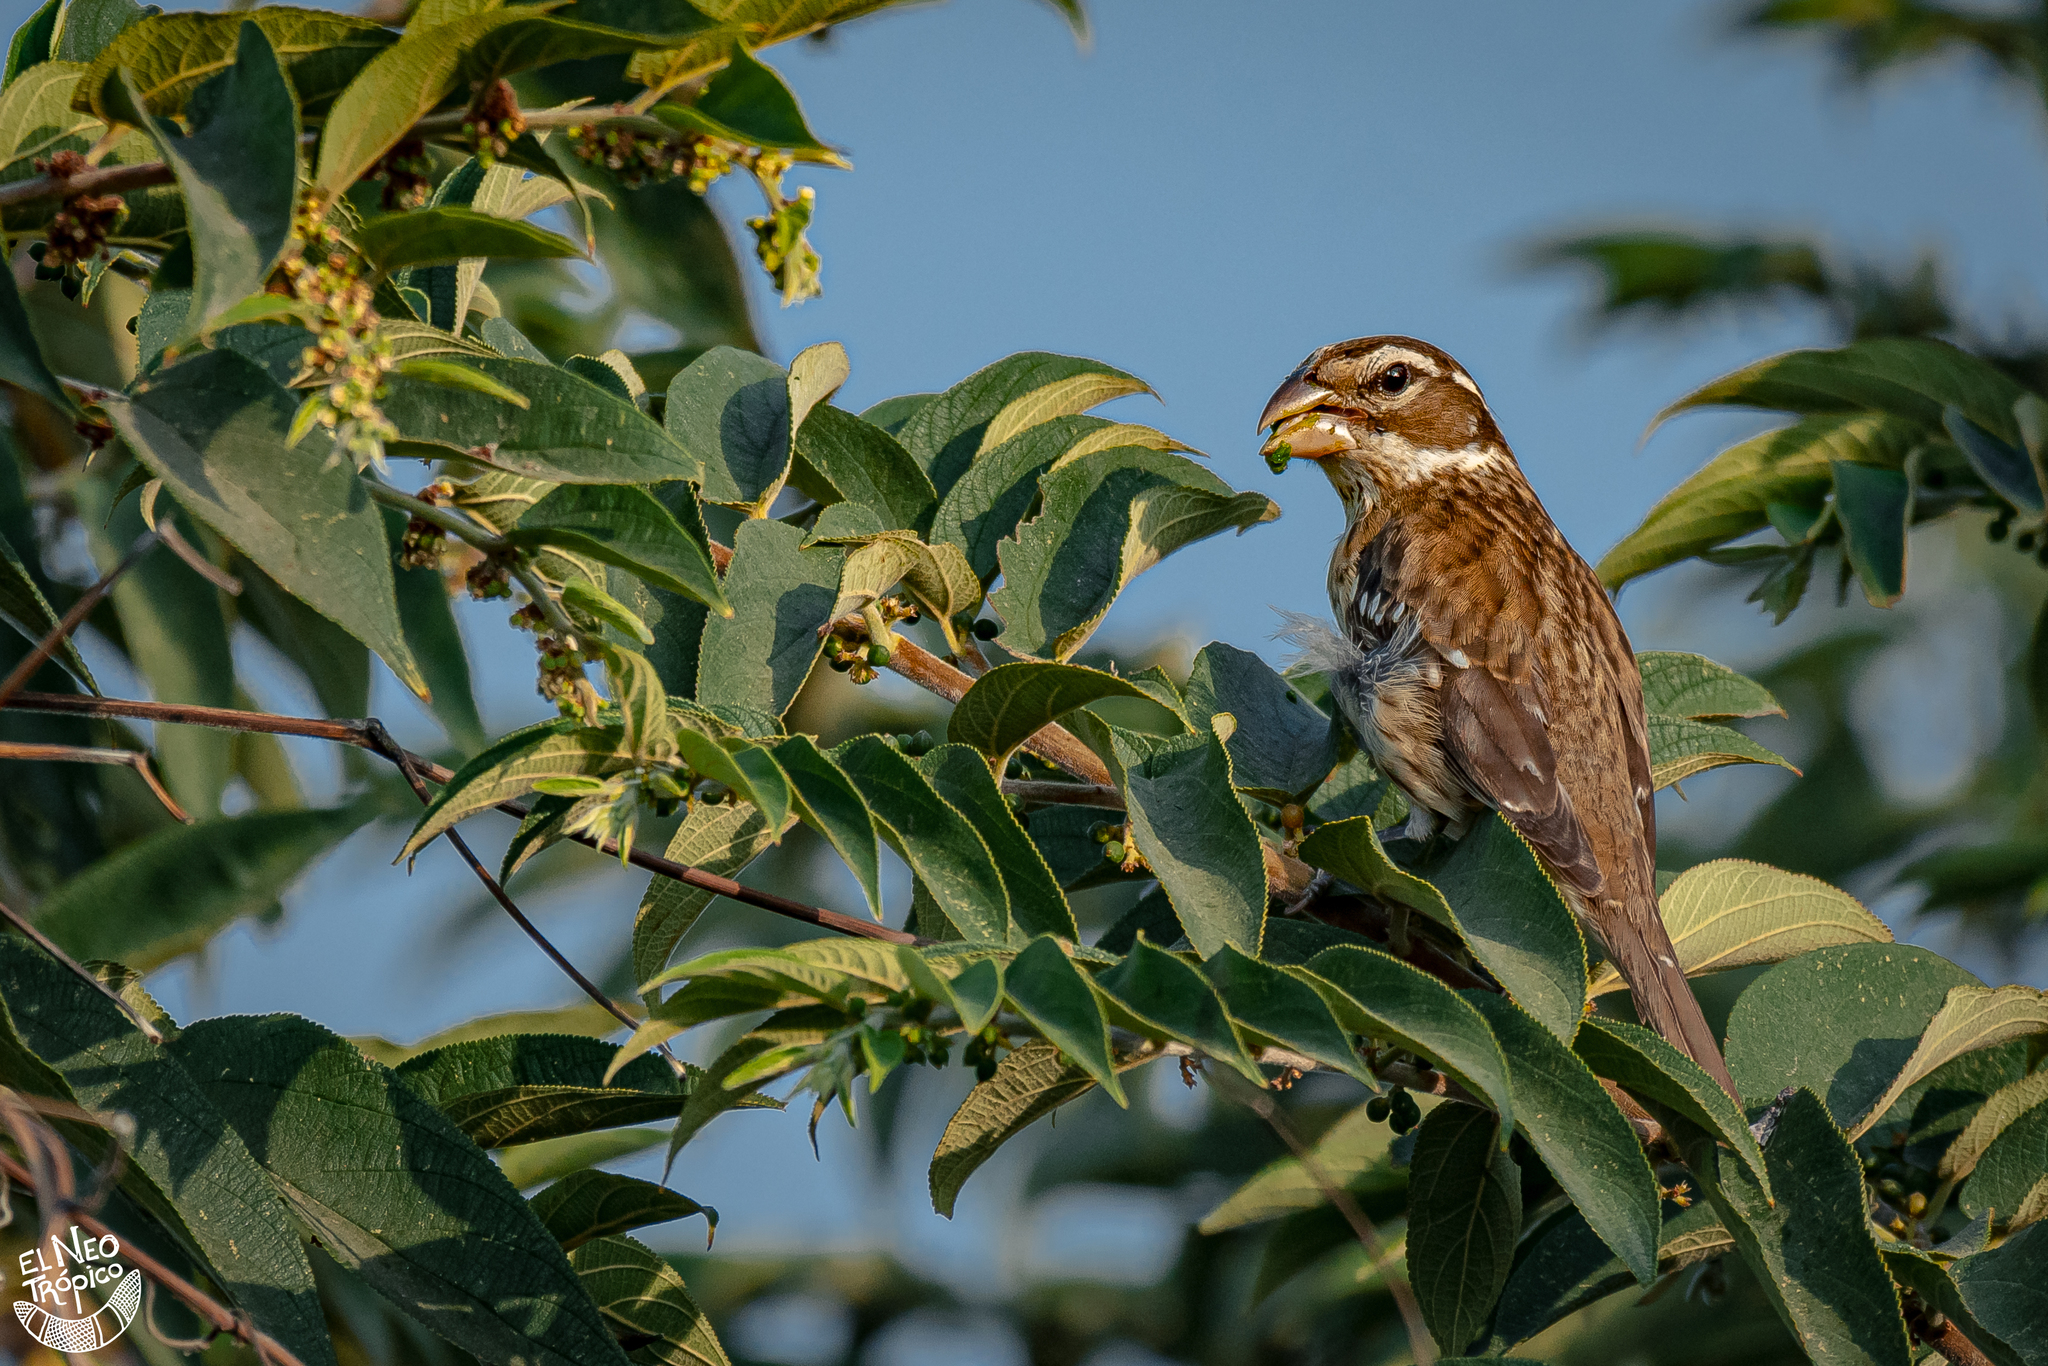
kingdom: Animalia
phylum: Chordata
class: Aves
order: Passeriformes
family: Cardinalidae
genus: Pheucticus
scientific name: Pheucticus ludovicianus
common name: Rose-breasted grosbeak
